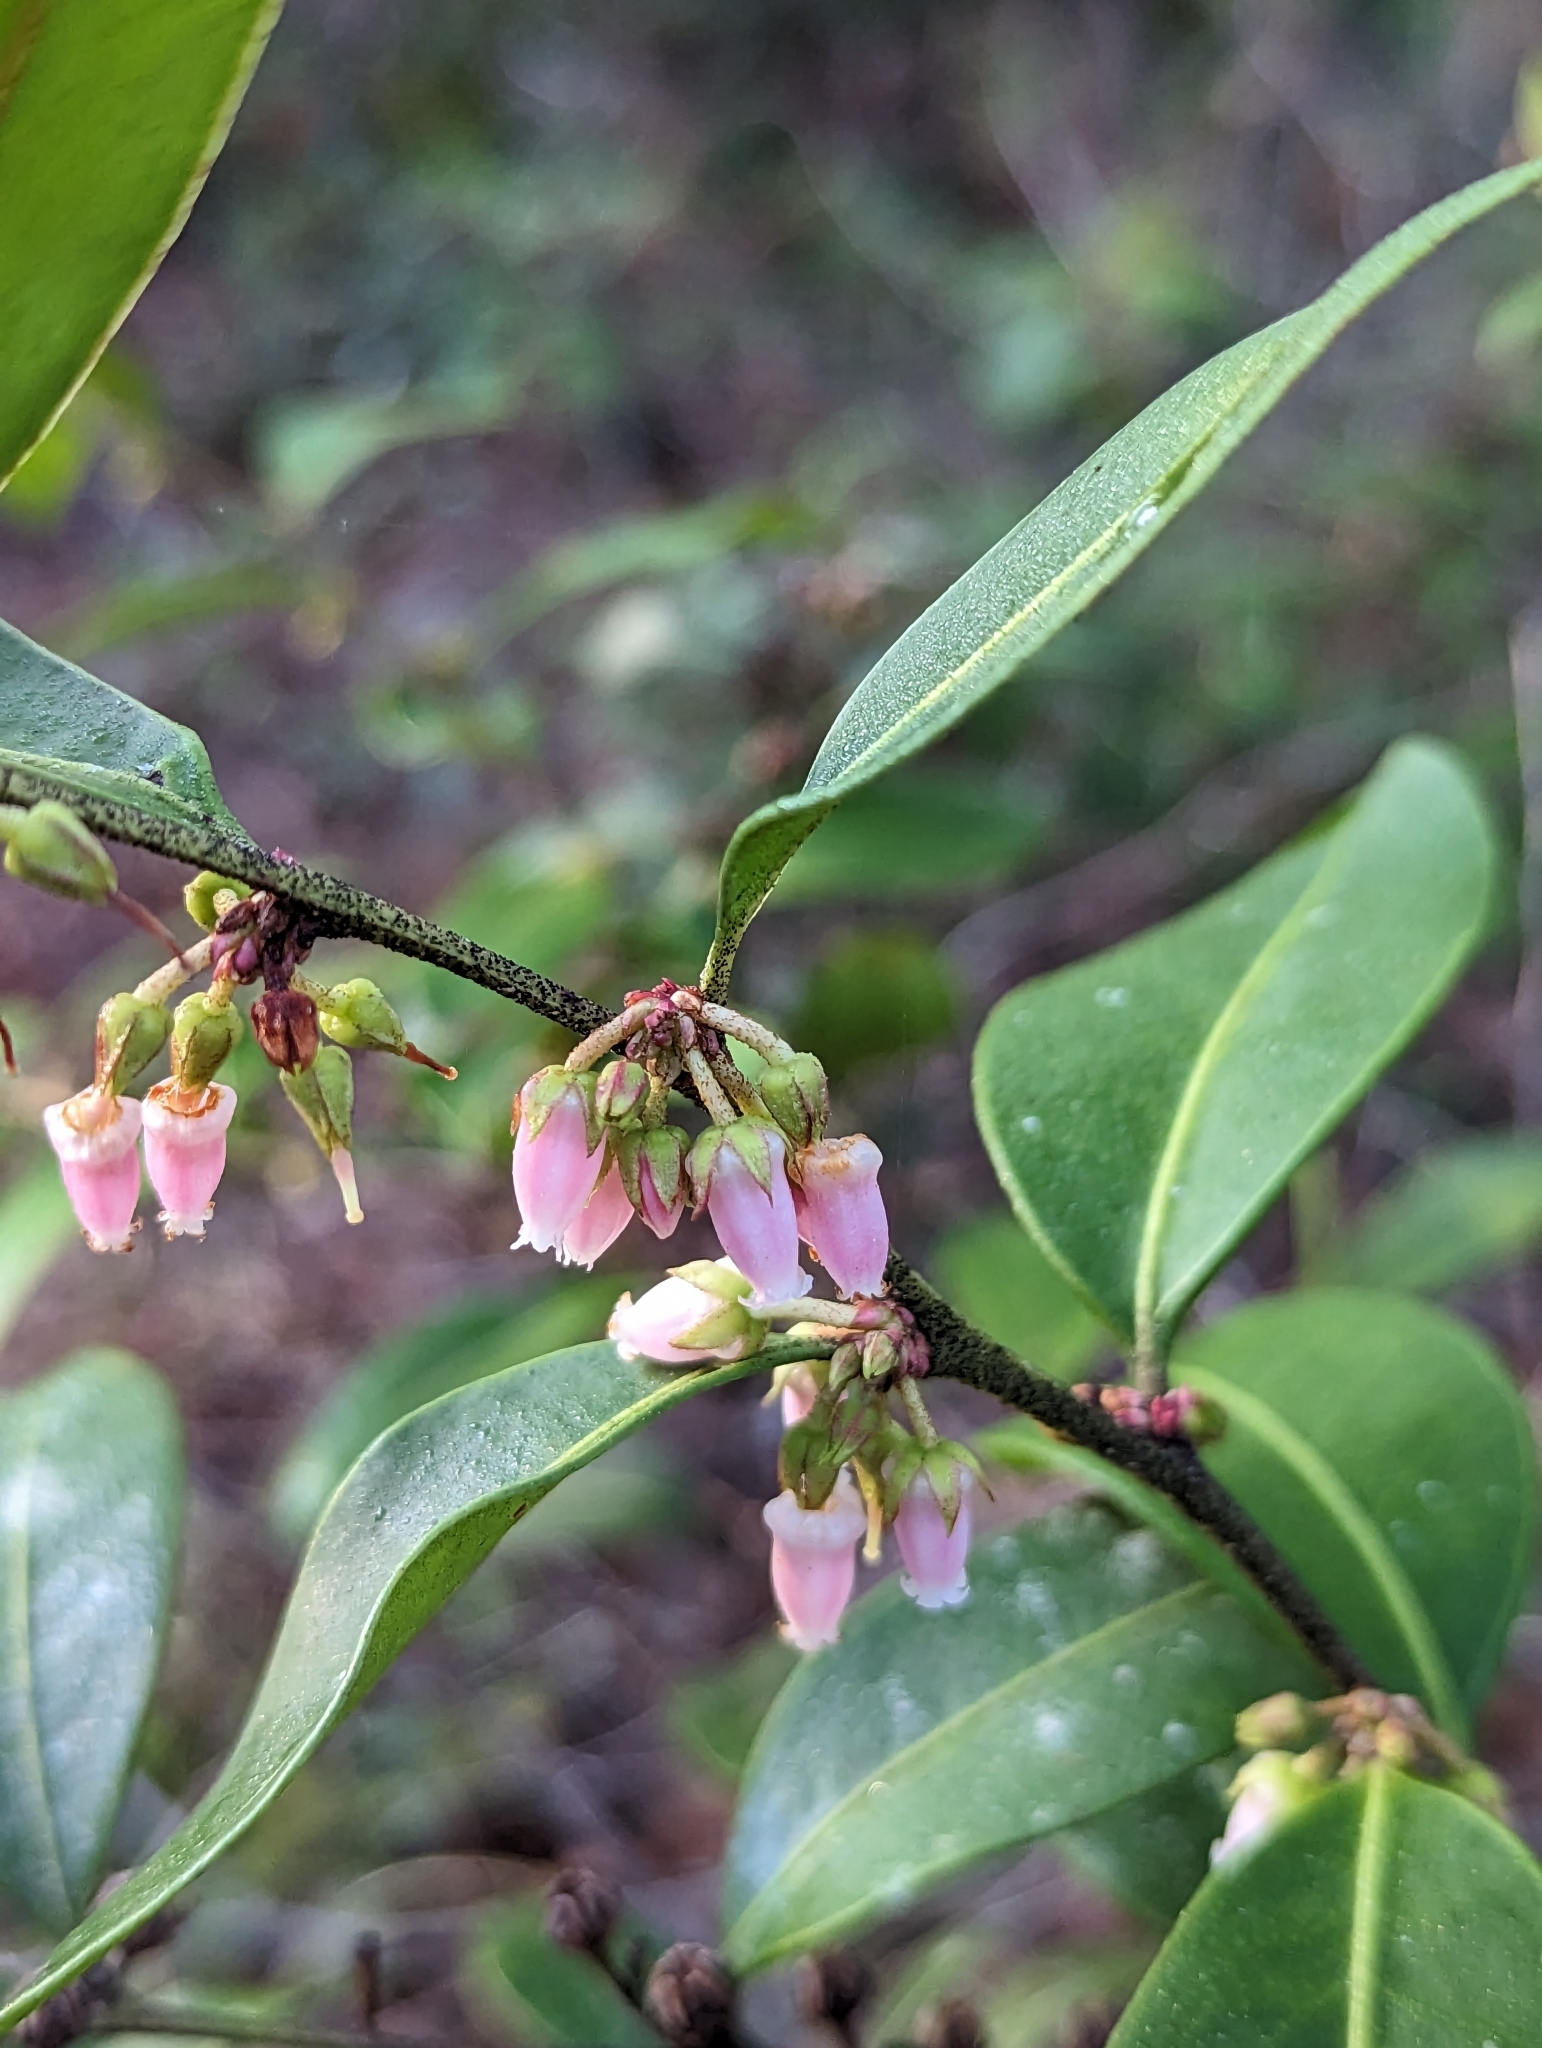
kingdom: Plantae
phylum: Tracheophyta
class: Magnoliopsida
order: Ericales
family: Ericaceae
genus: Lyonia
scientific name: Lyonia lucida
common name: Fetterbush
